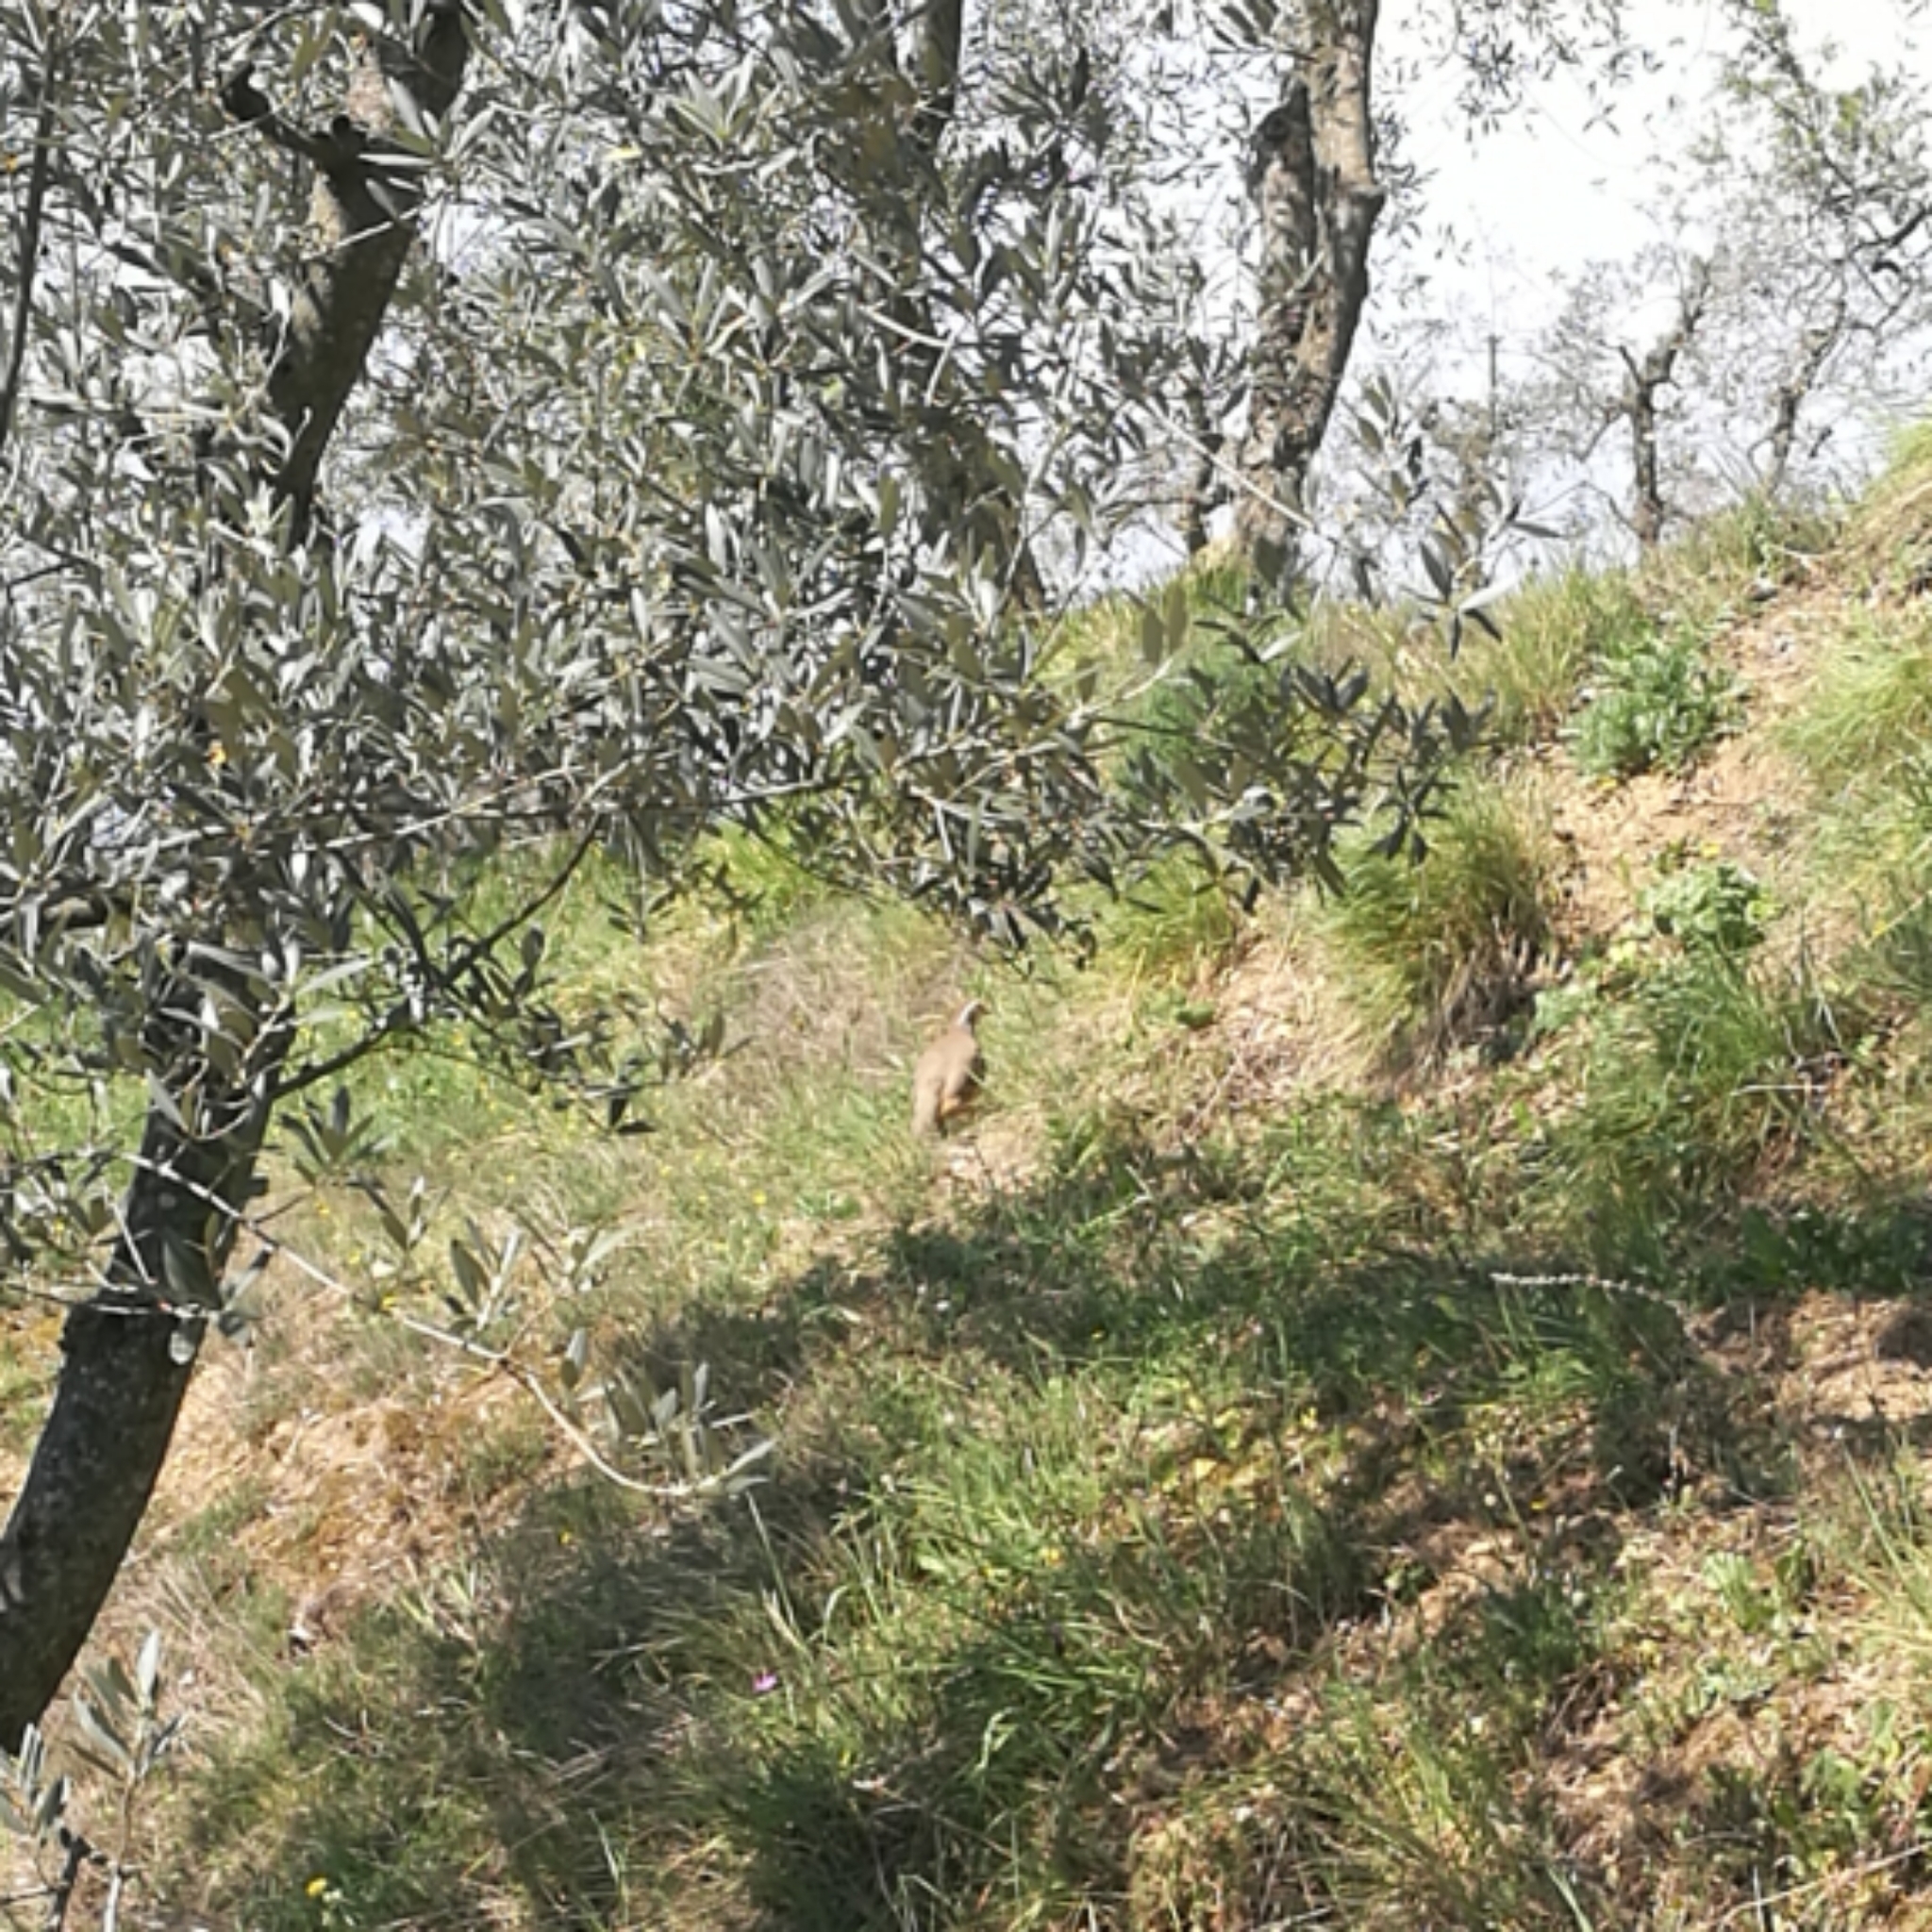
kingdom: Animalia
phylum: Chordata
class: Aves
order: Galliformes
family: Phasianidae
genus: Alectoris
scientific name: Alectoris rufa
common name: Red-legged partridge
